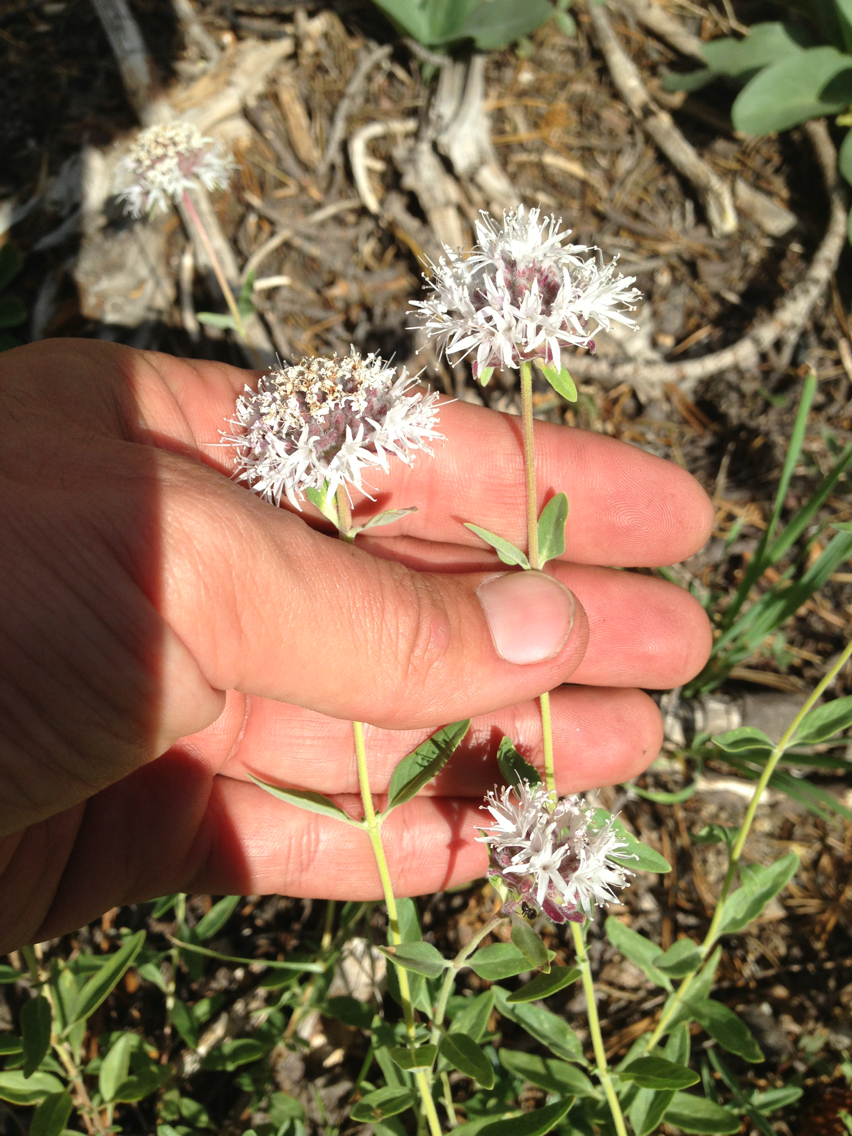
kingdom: Plantae
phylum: Tracheophyta
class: Magnoliopsida
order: Lamiales
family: Lamiaceae
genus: Monardella
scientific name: Monardella odoratissima
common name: Pacific monardella
